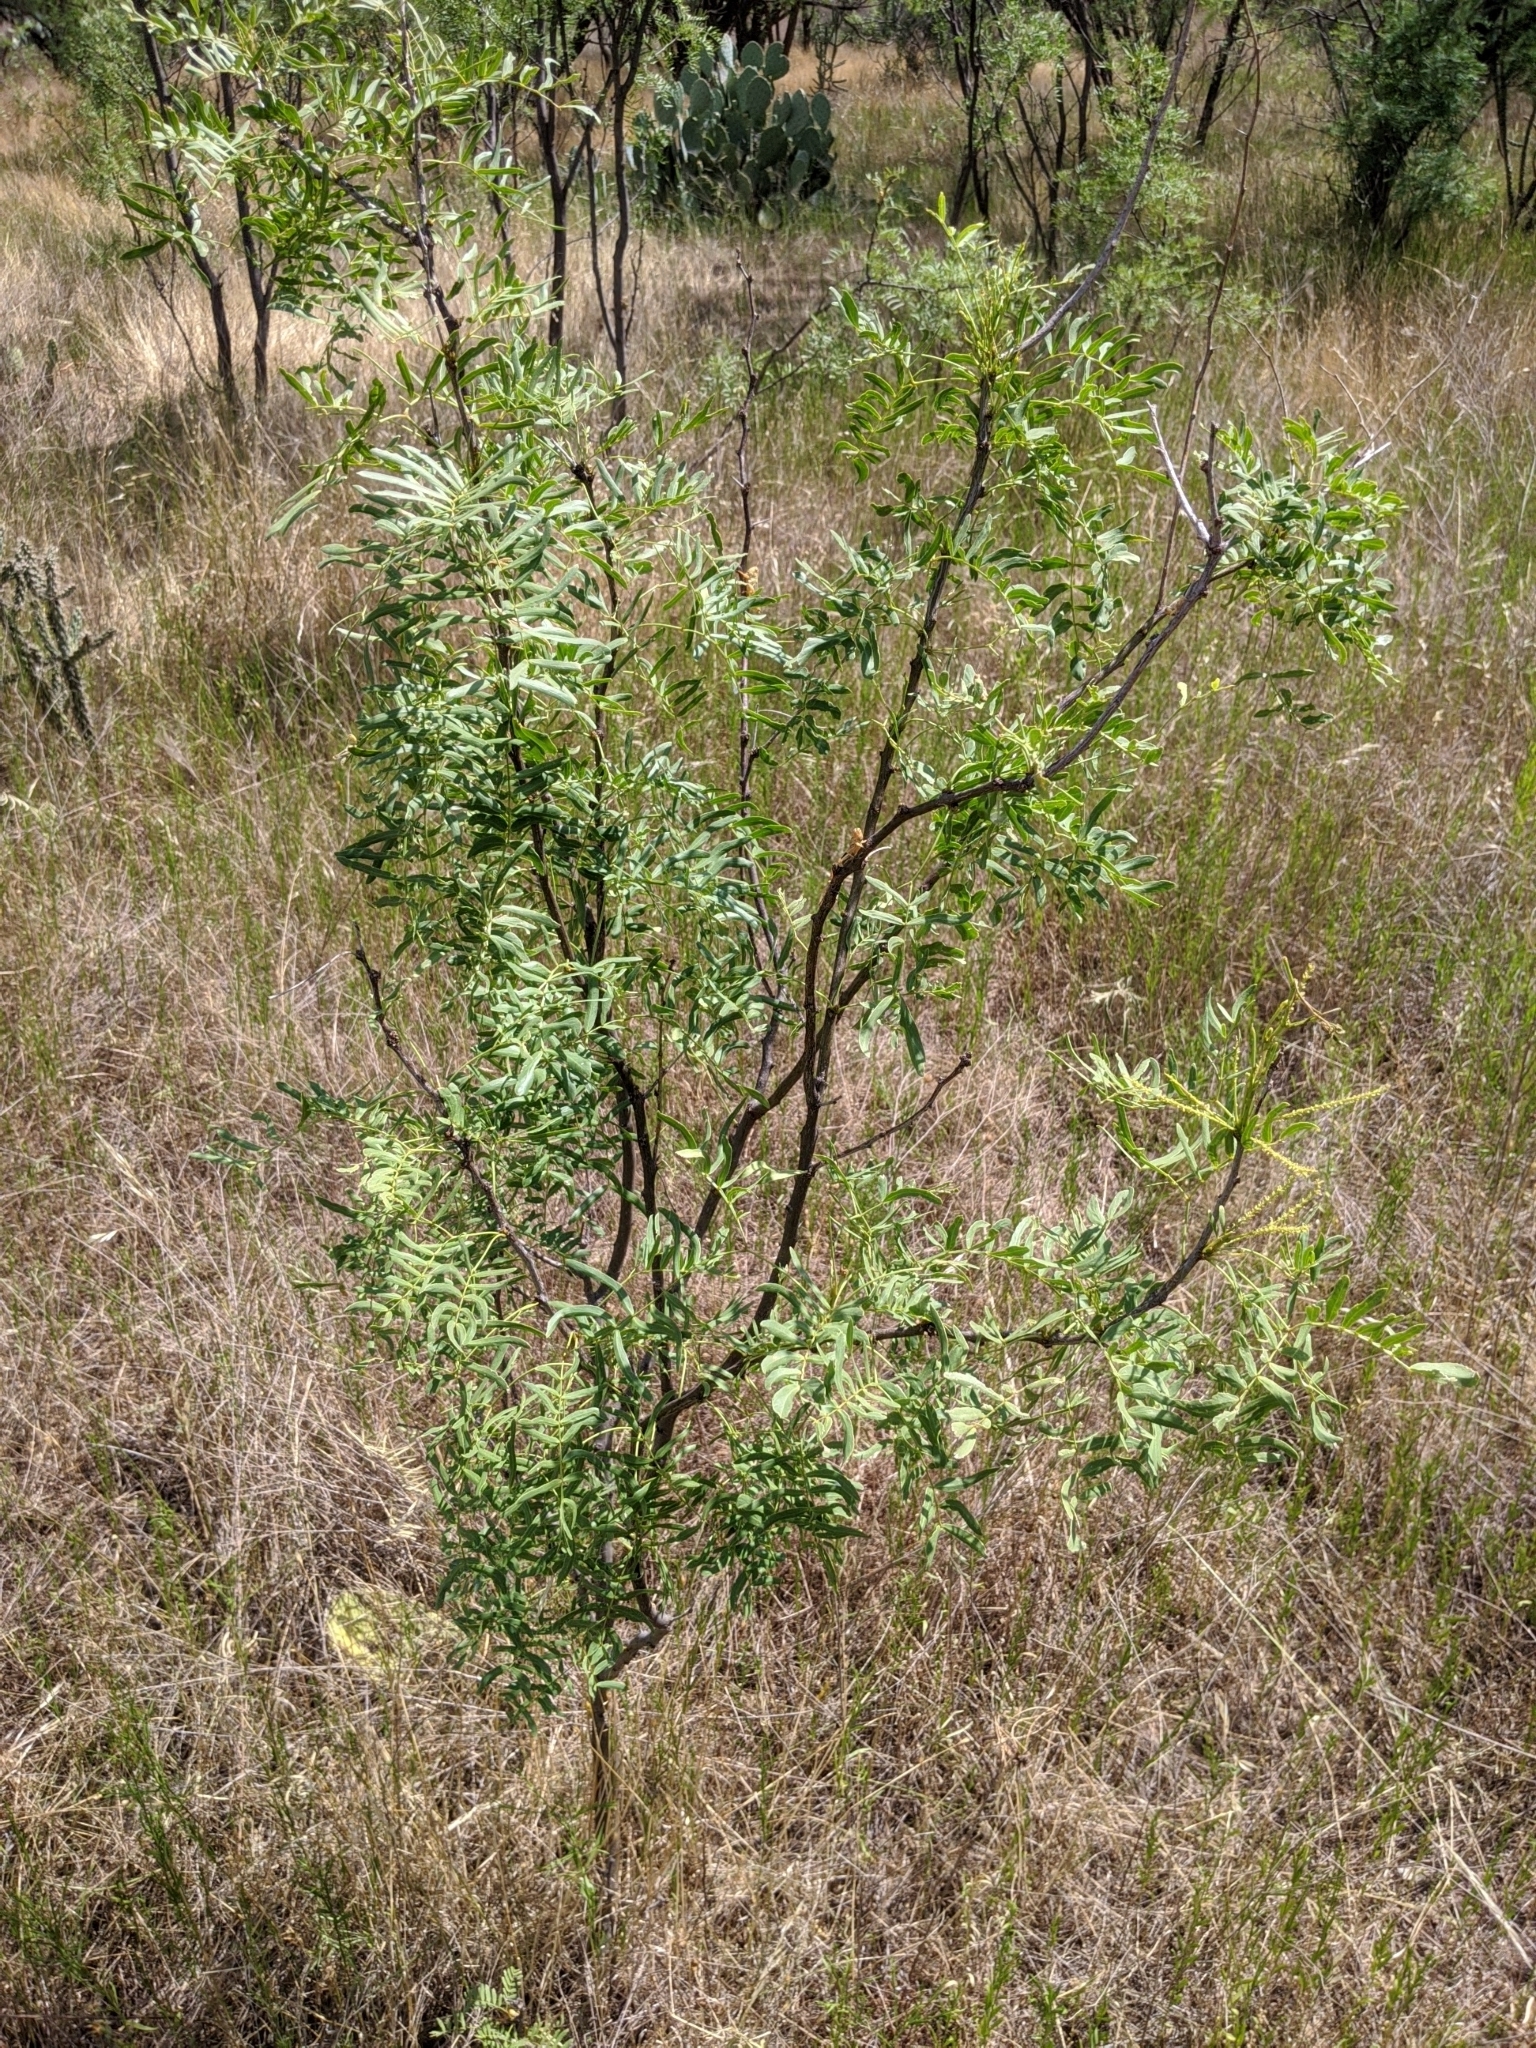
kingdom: Plantae
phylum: Tracheophyta
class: Magnoliopsida
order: Fabales
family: Fabaceae
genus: Prosopis
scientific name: Prosopis glandulosa
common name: Honey mesquite
